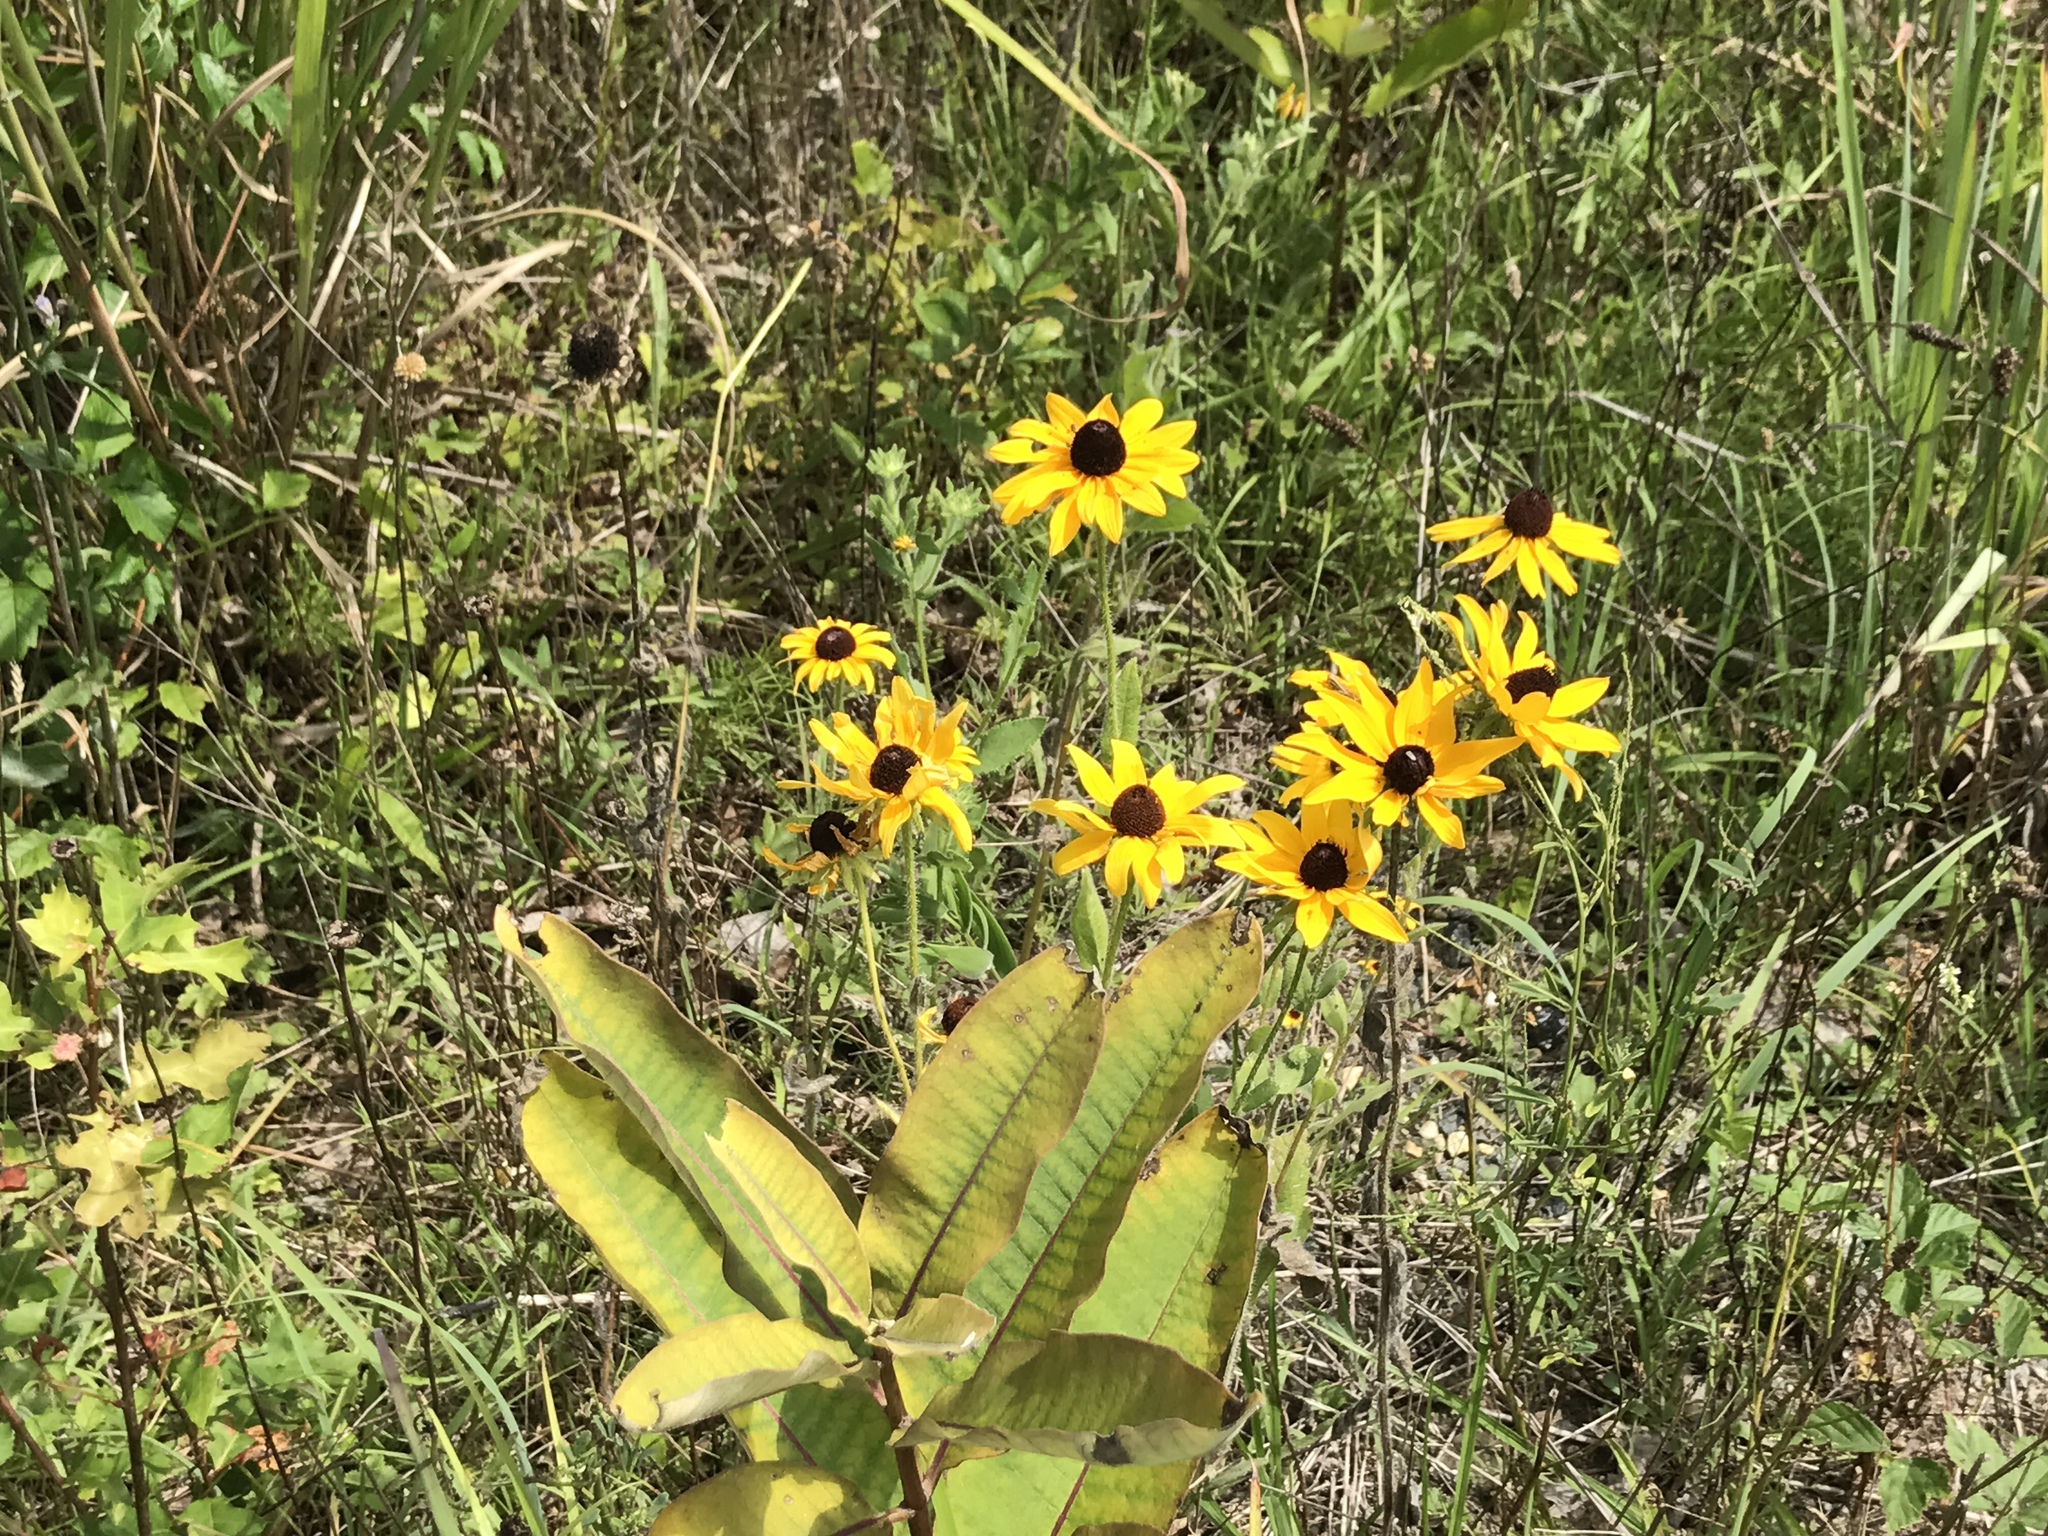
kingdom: Plantae
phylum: Tracheophyta
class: Magnoliopsida
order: Asterales
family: Asteraceae
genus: Rudbeckia
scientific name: Rudbeckia hirta
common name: Black-eyed-susan
